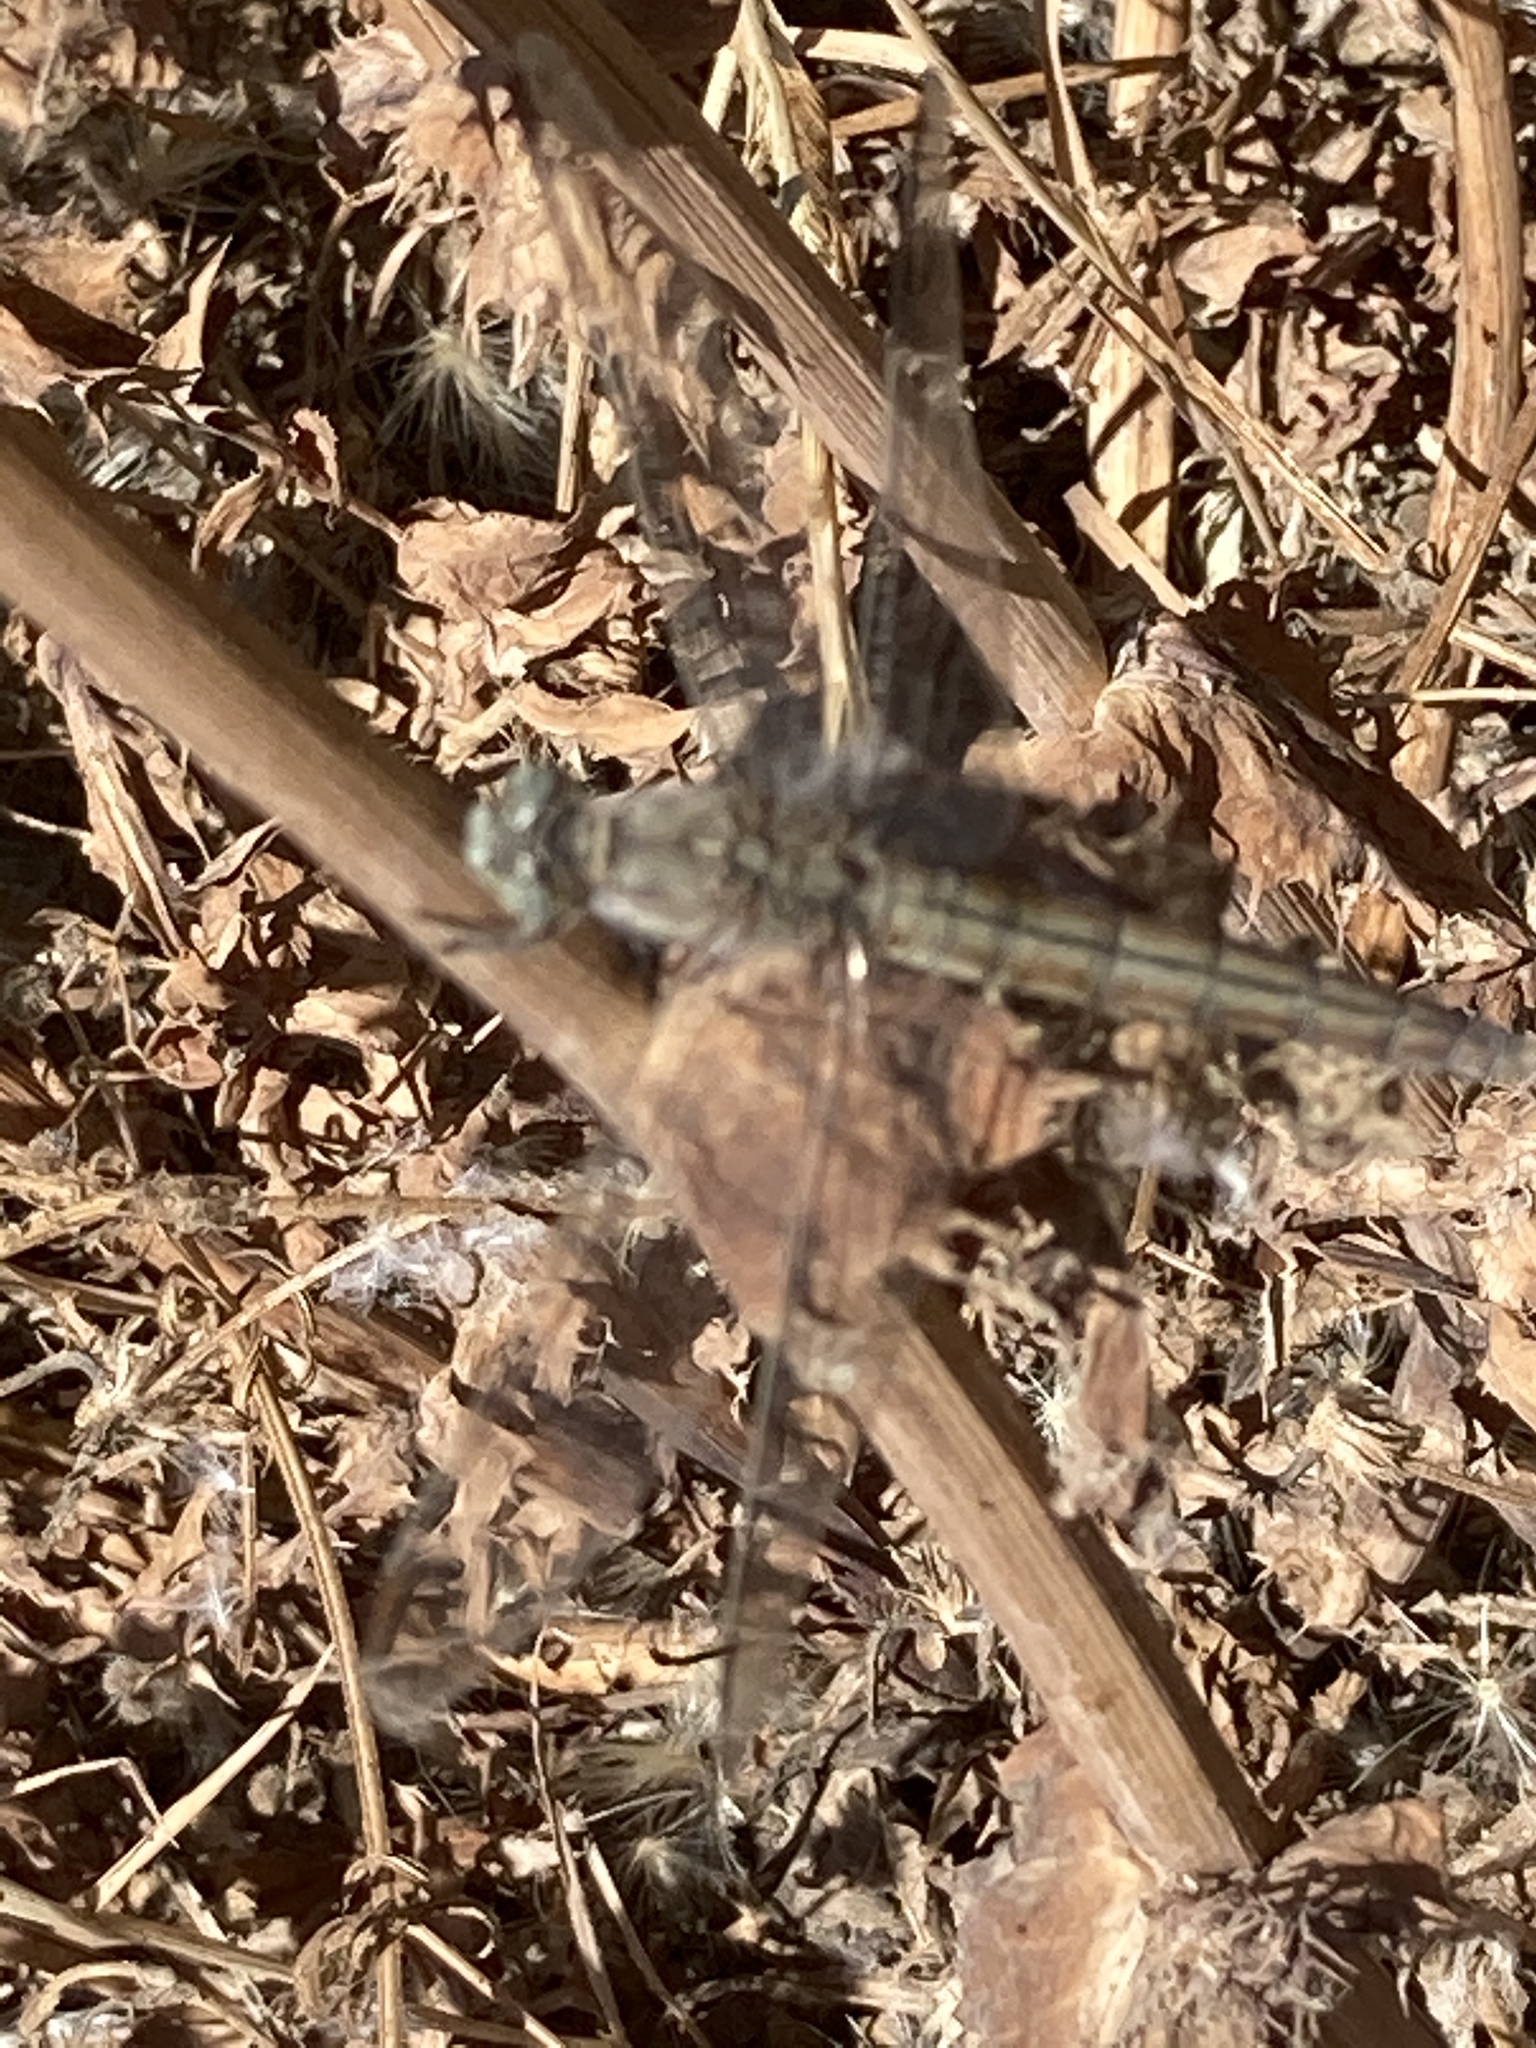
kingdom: Animalia
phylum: Arthropoda
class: Insecta
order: Odonata
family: Libellulidae
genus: Orthetrum
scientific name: Orthetrum brunneum
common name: Southern skimmer
